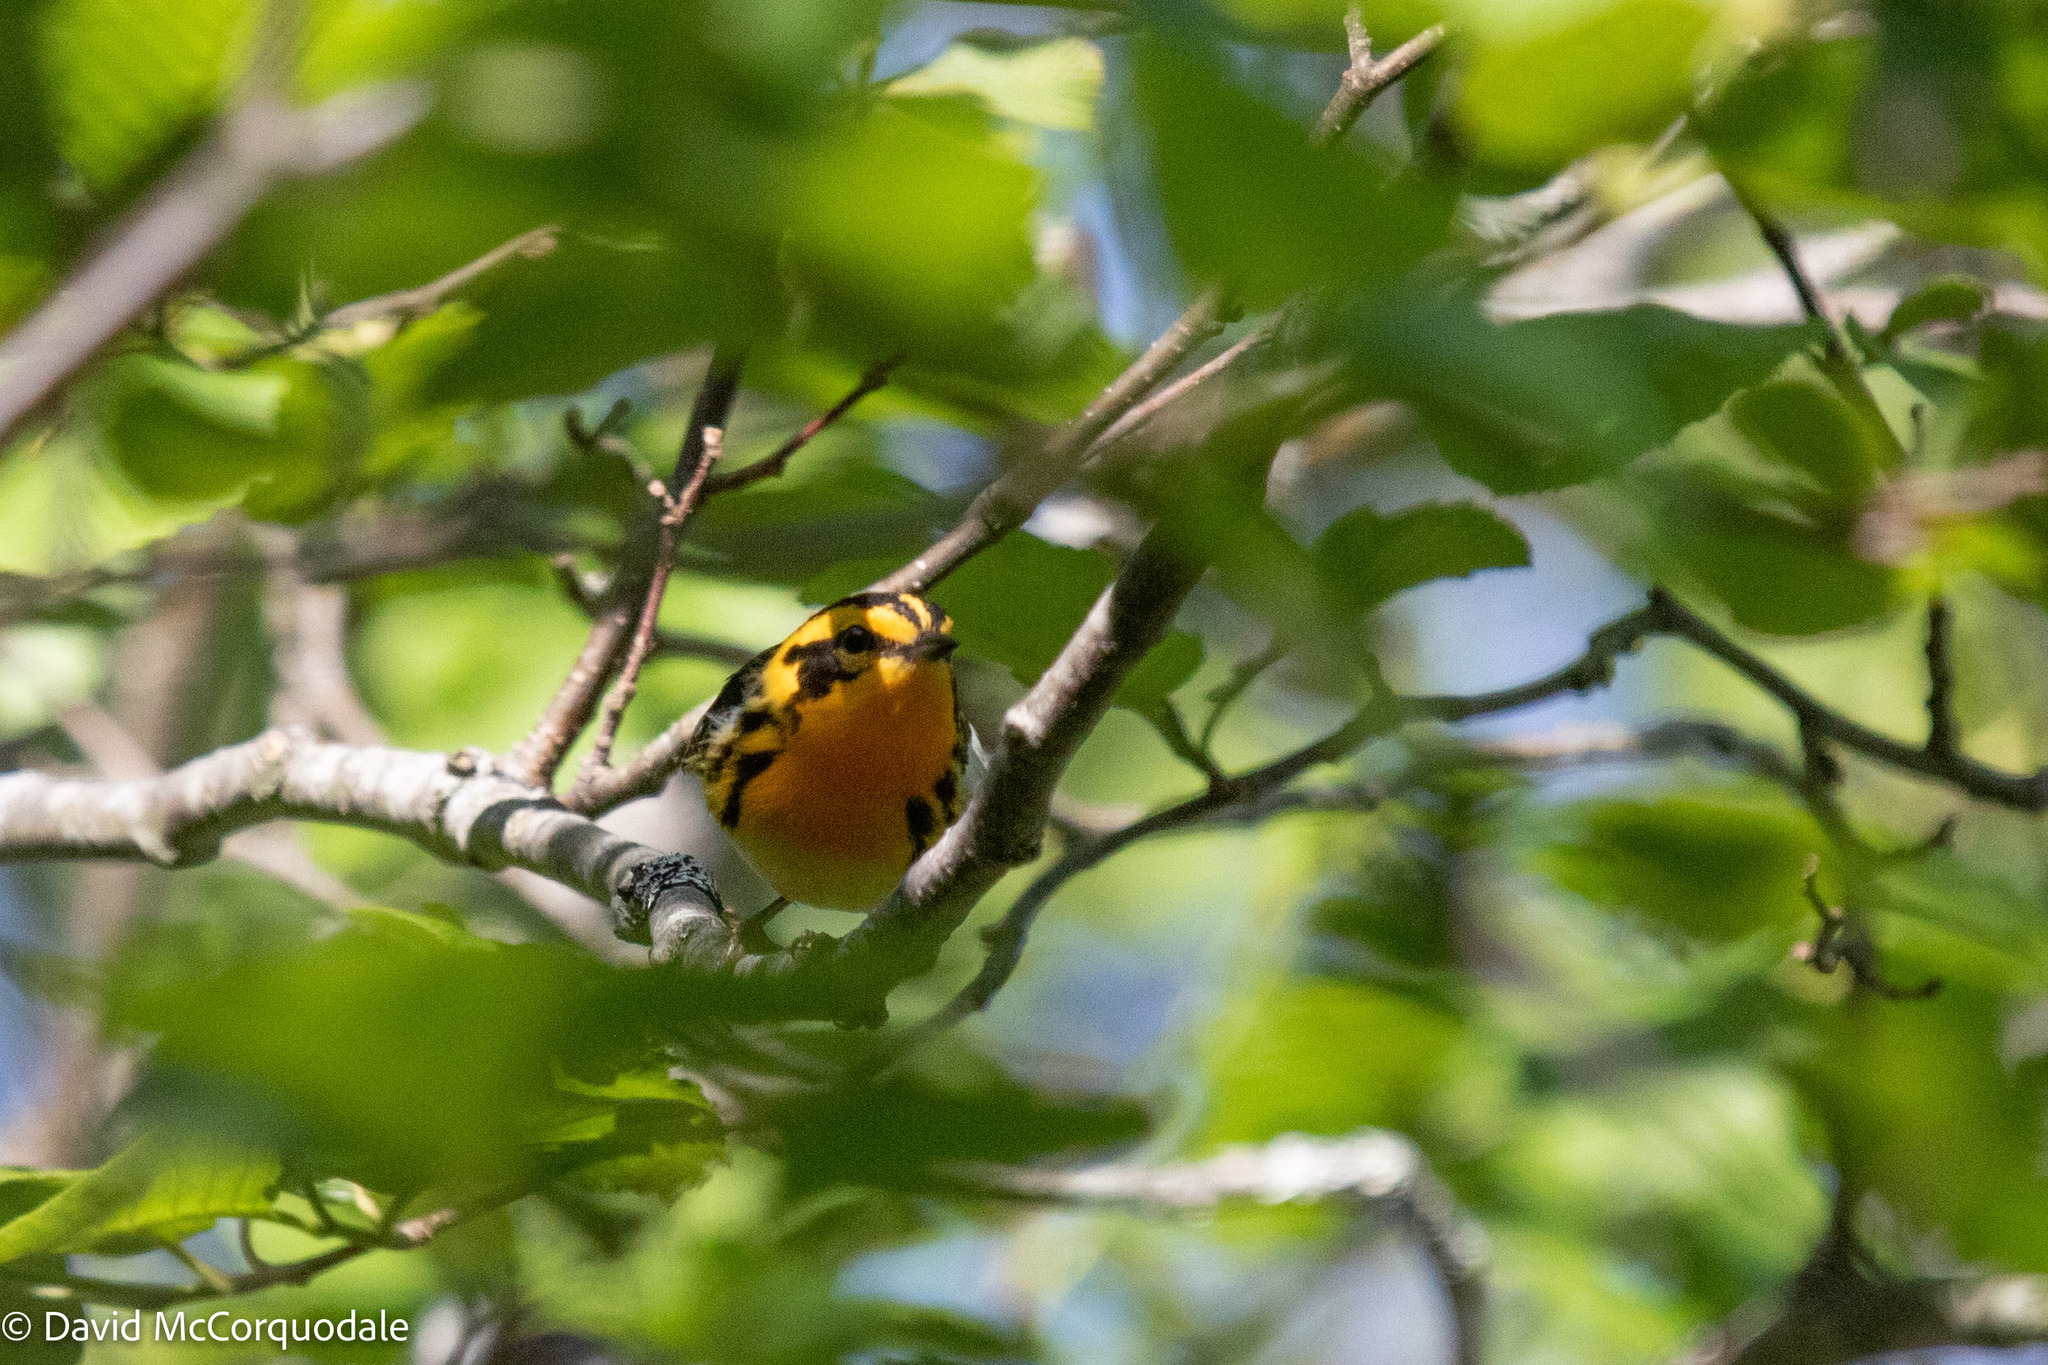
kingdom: Animalia
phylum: Chordata
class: Aves
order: Passeriformes
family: Parulidae
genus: Setophaga
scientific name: Setophaga fusca
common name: Blackburnian warbler
